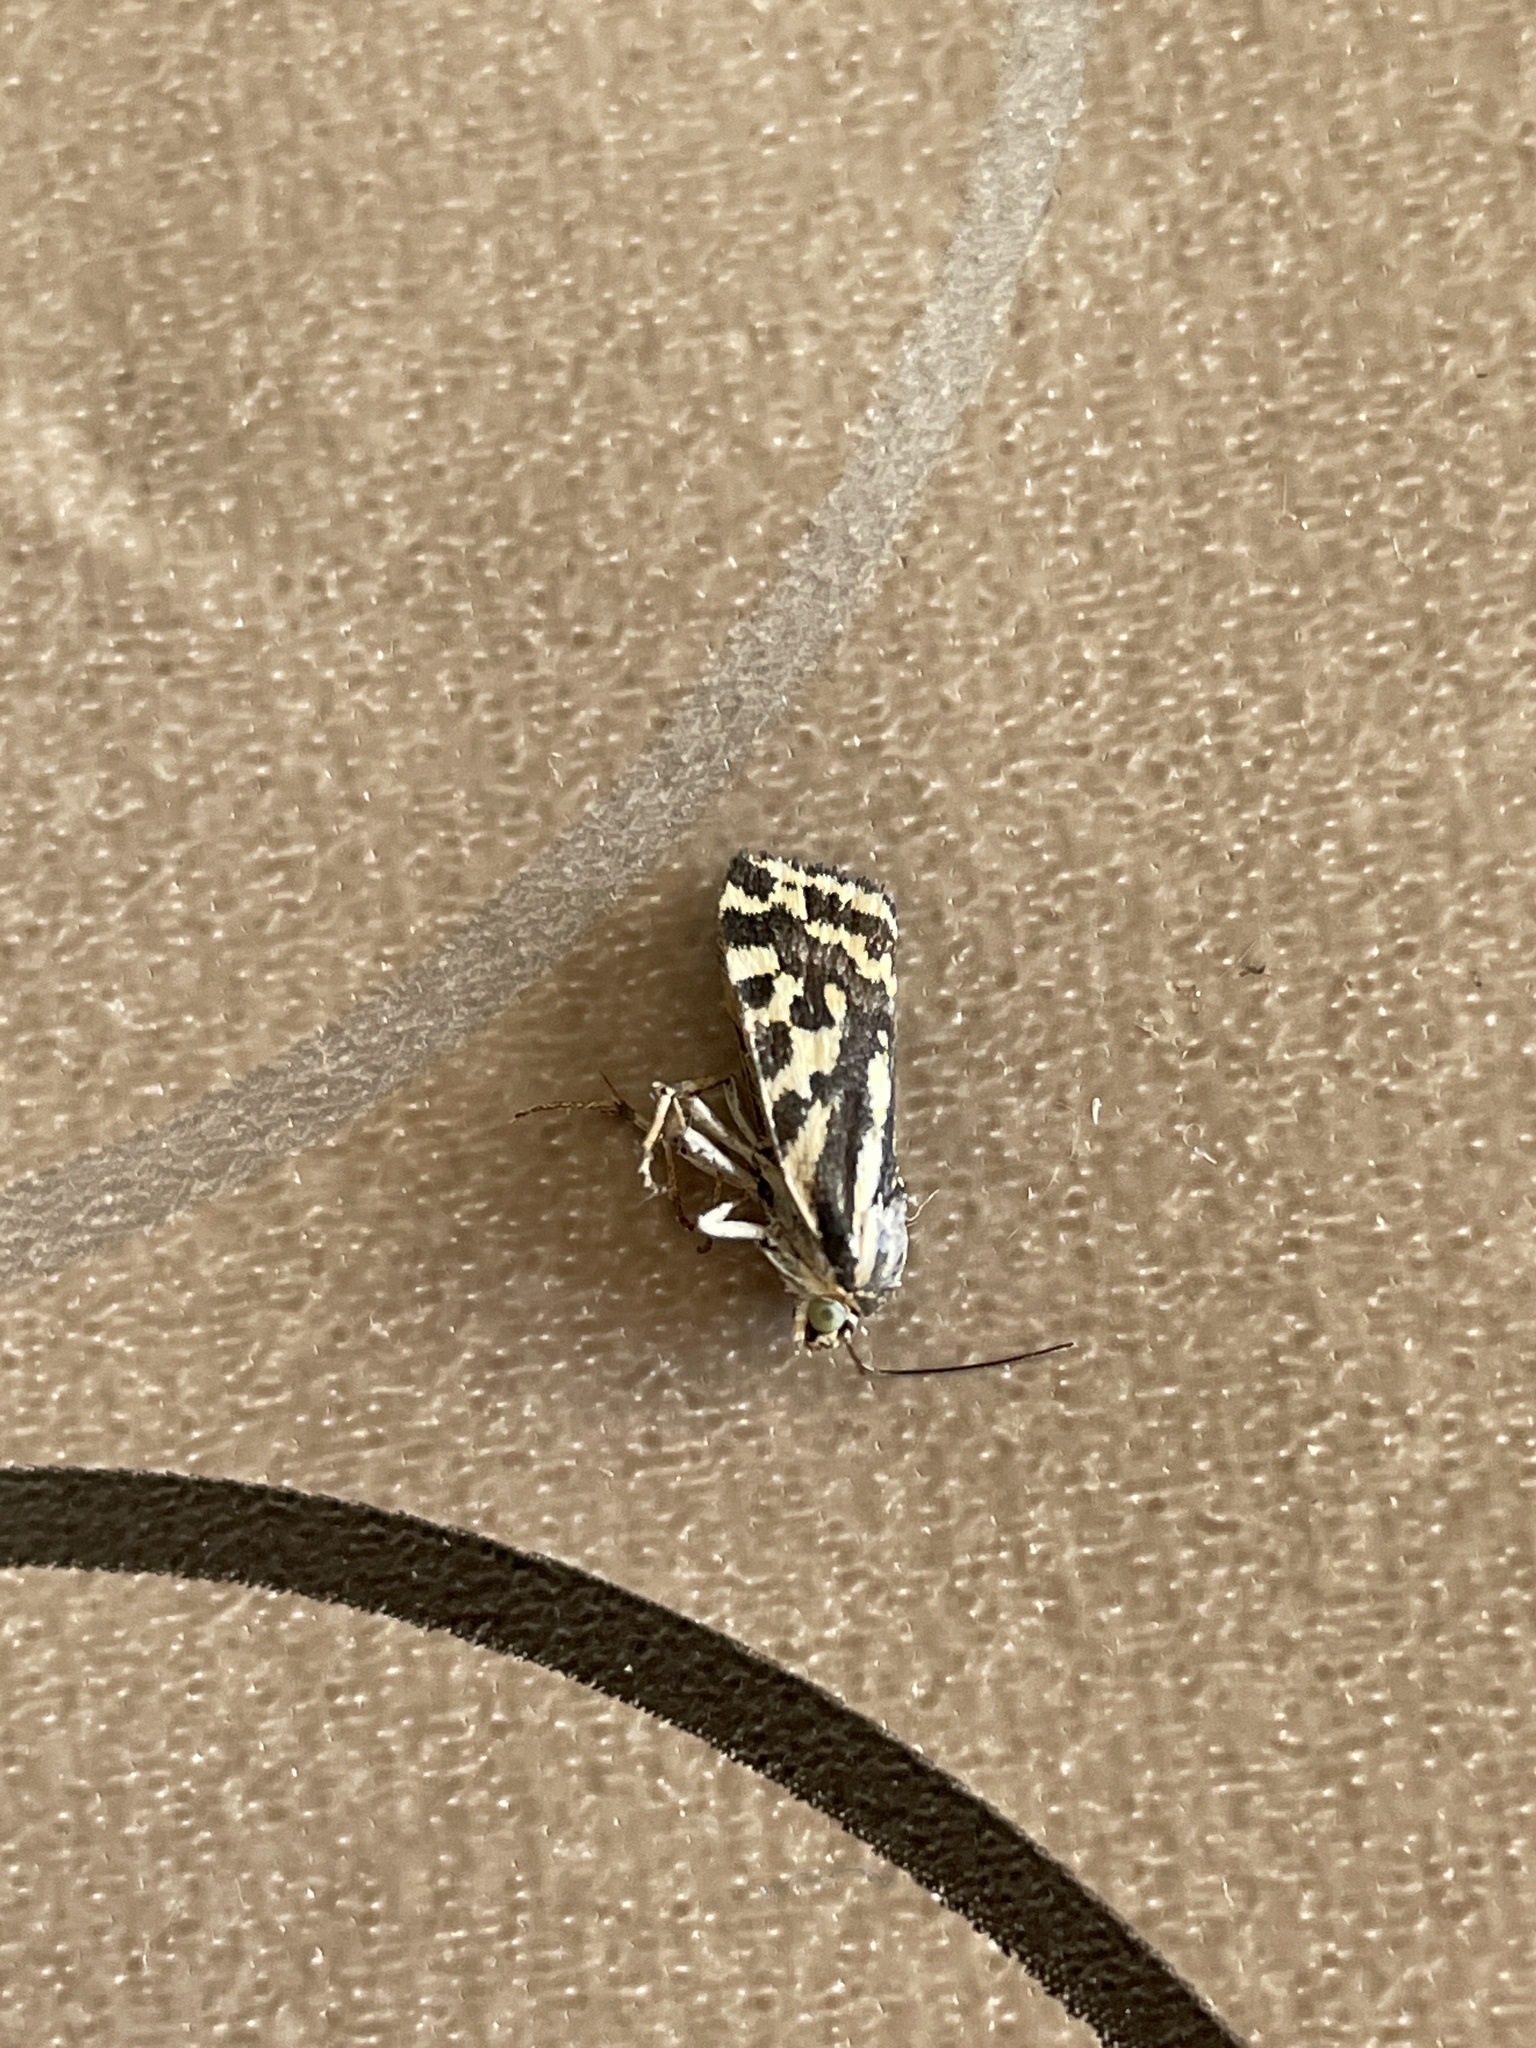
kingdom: Animalia
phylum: Arthropoda
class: Insecta
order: Lepidoptera
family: Noctuidae
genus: Acontia
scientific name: Acontia trabealis
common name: Spotted sulphur
